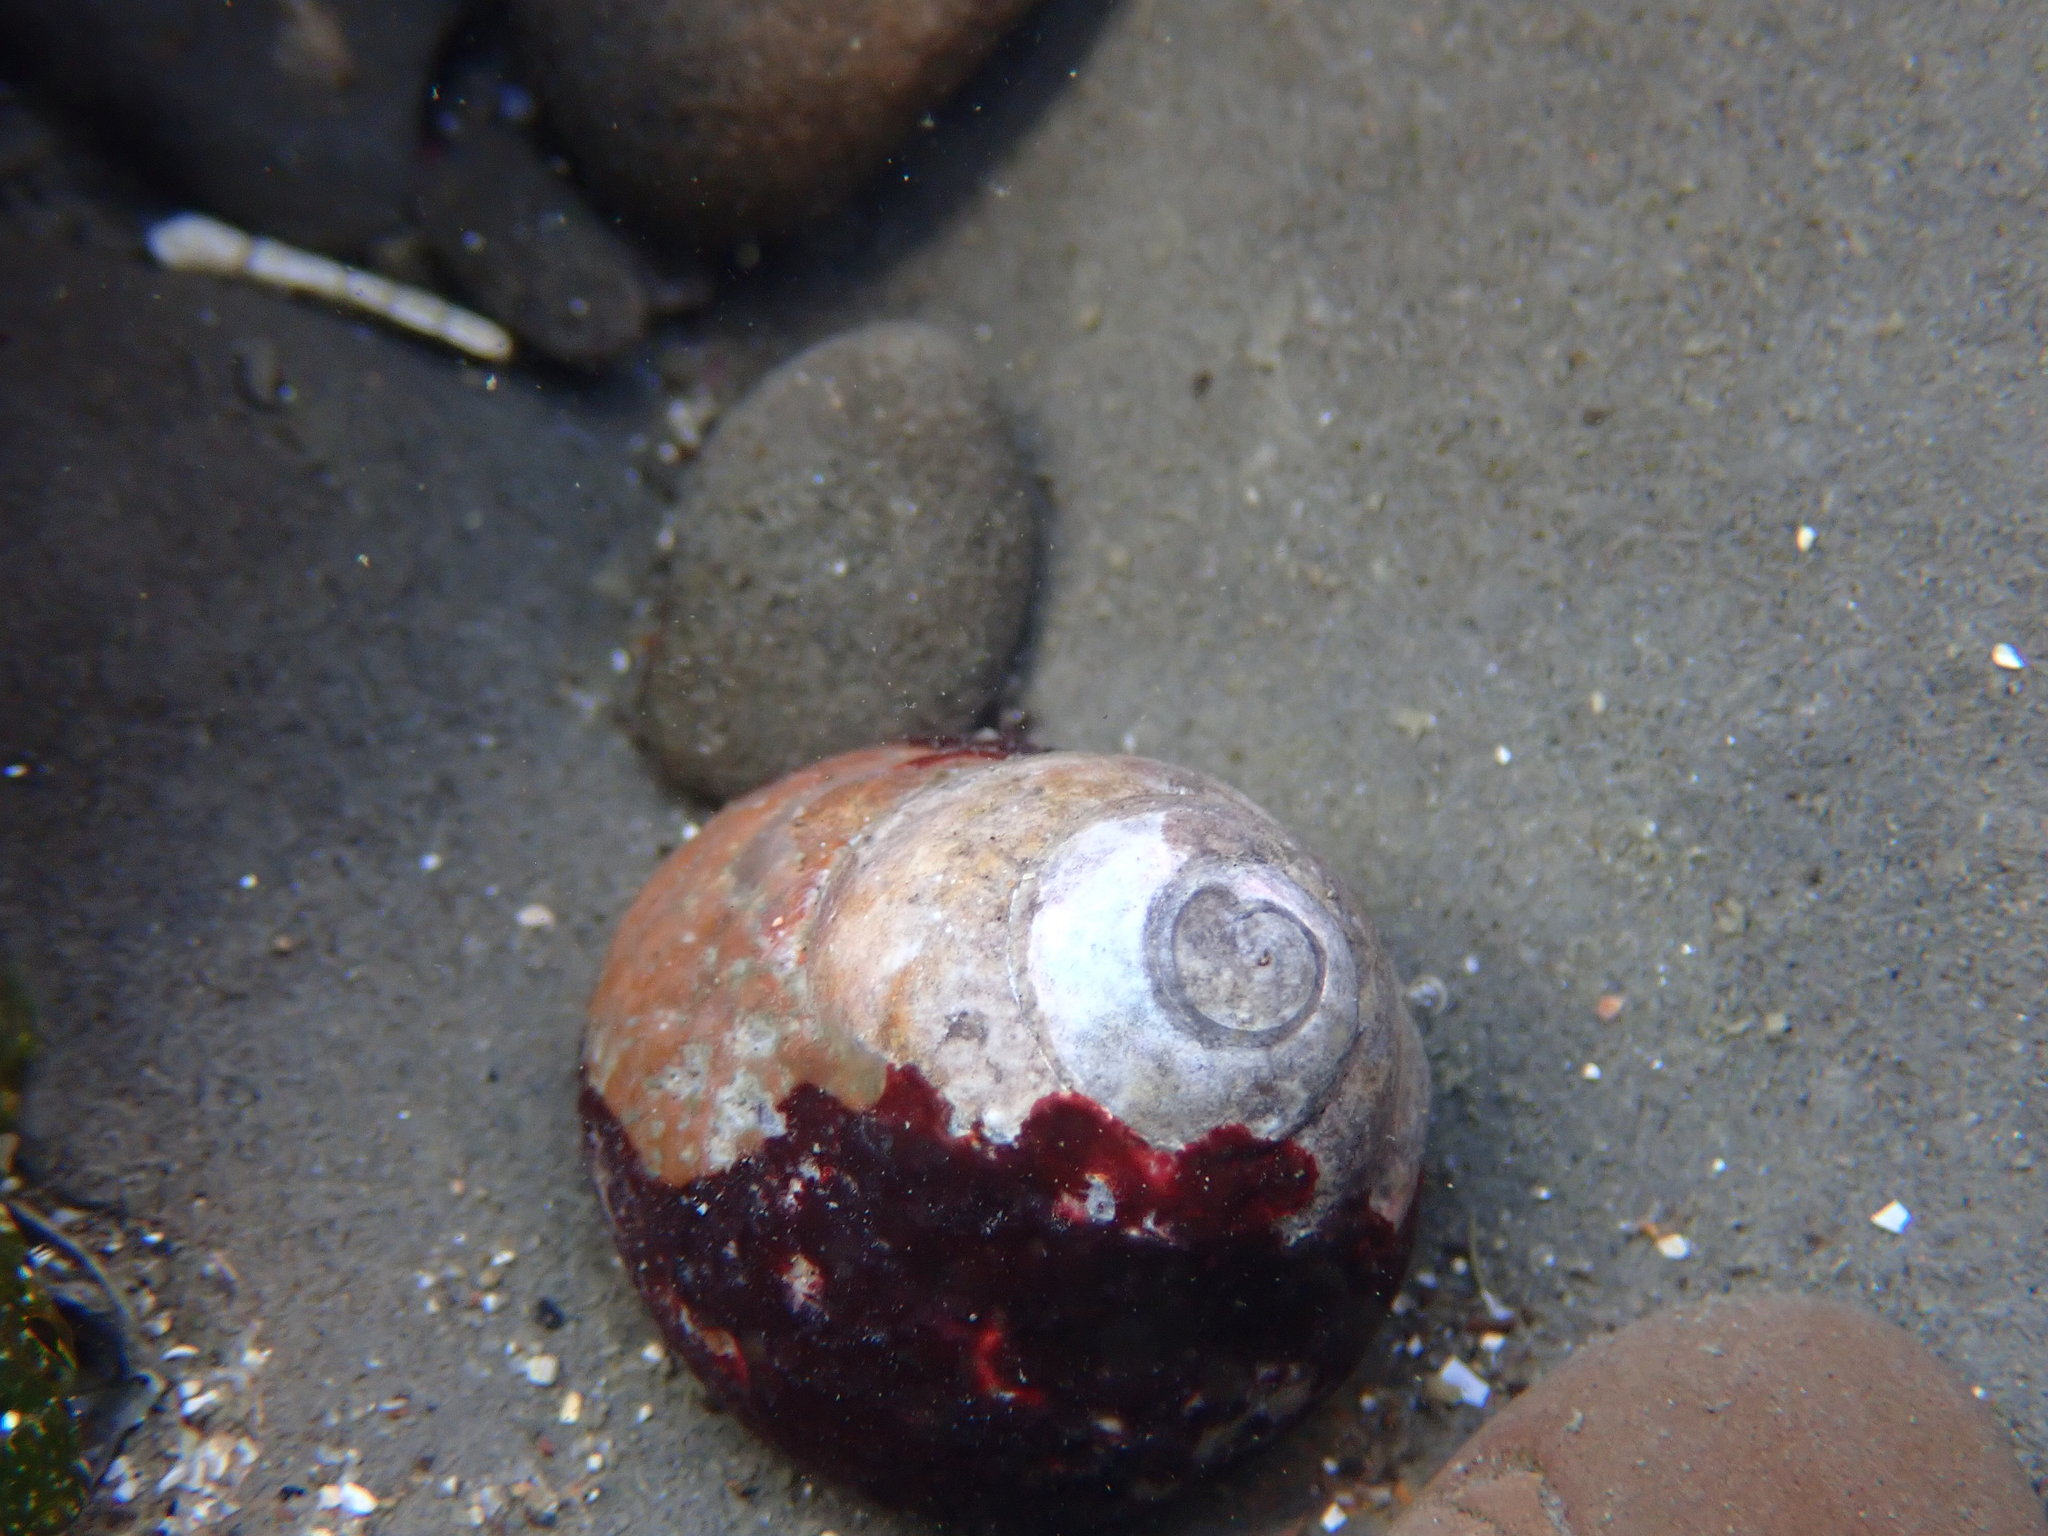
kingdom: Animalia
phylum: Mollusca
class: Gastropoda
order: Trochida
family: Tegulidae
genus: Tegula
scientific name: Tegula brunnea
